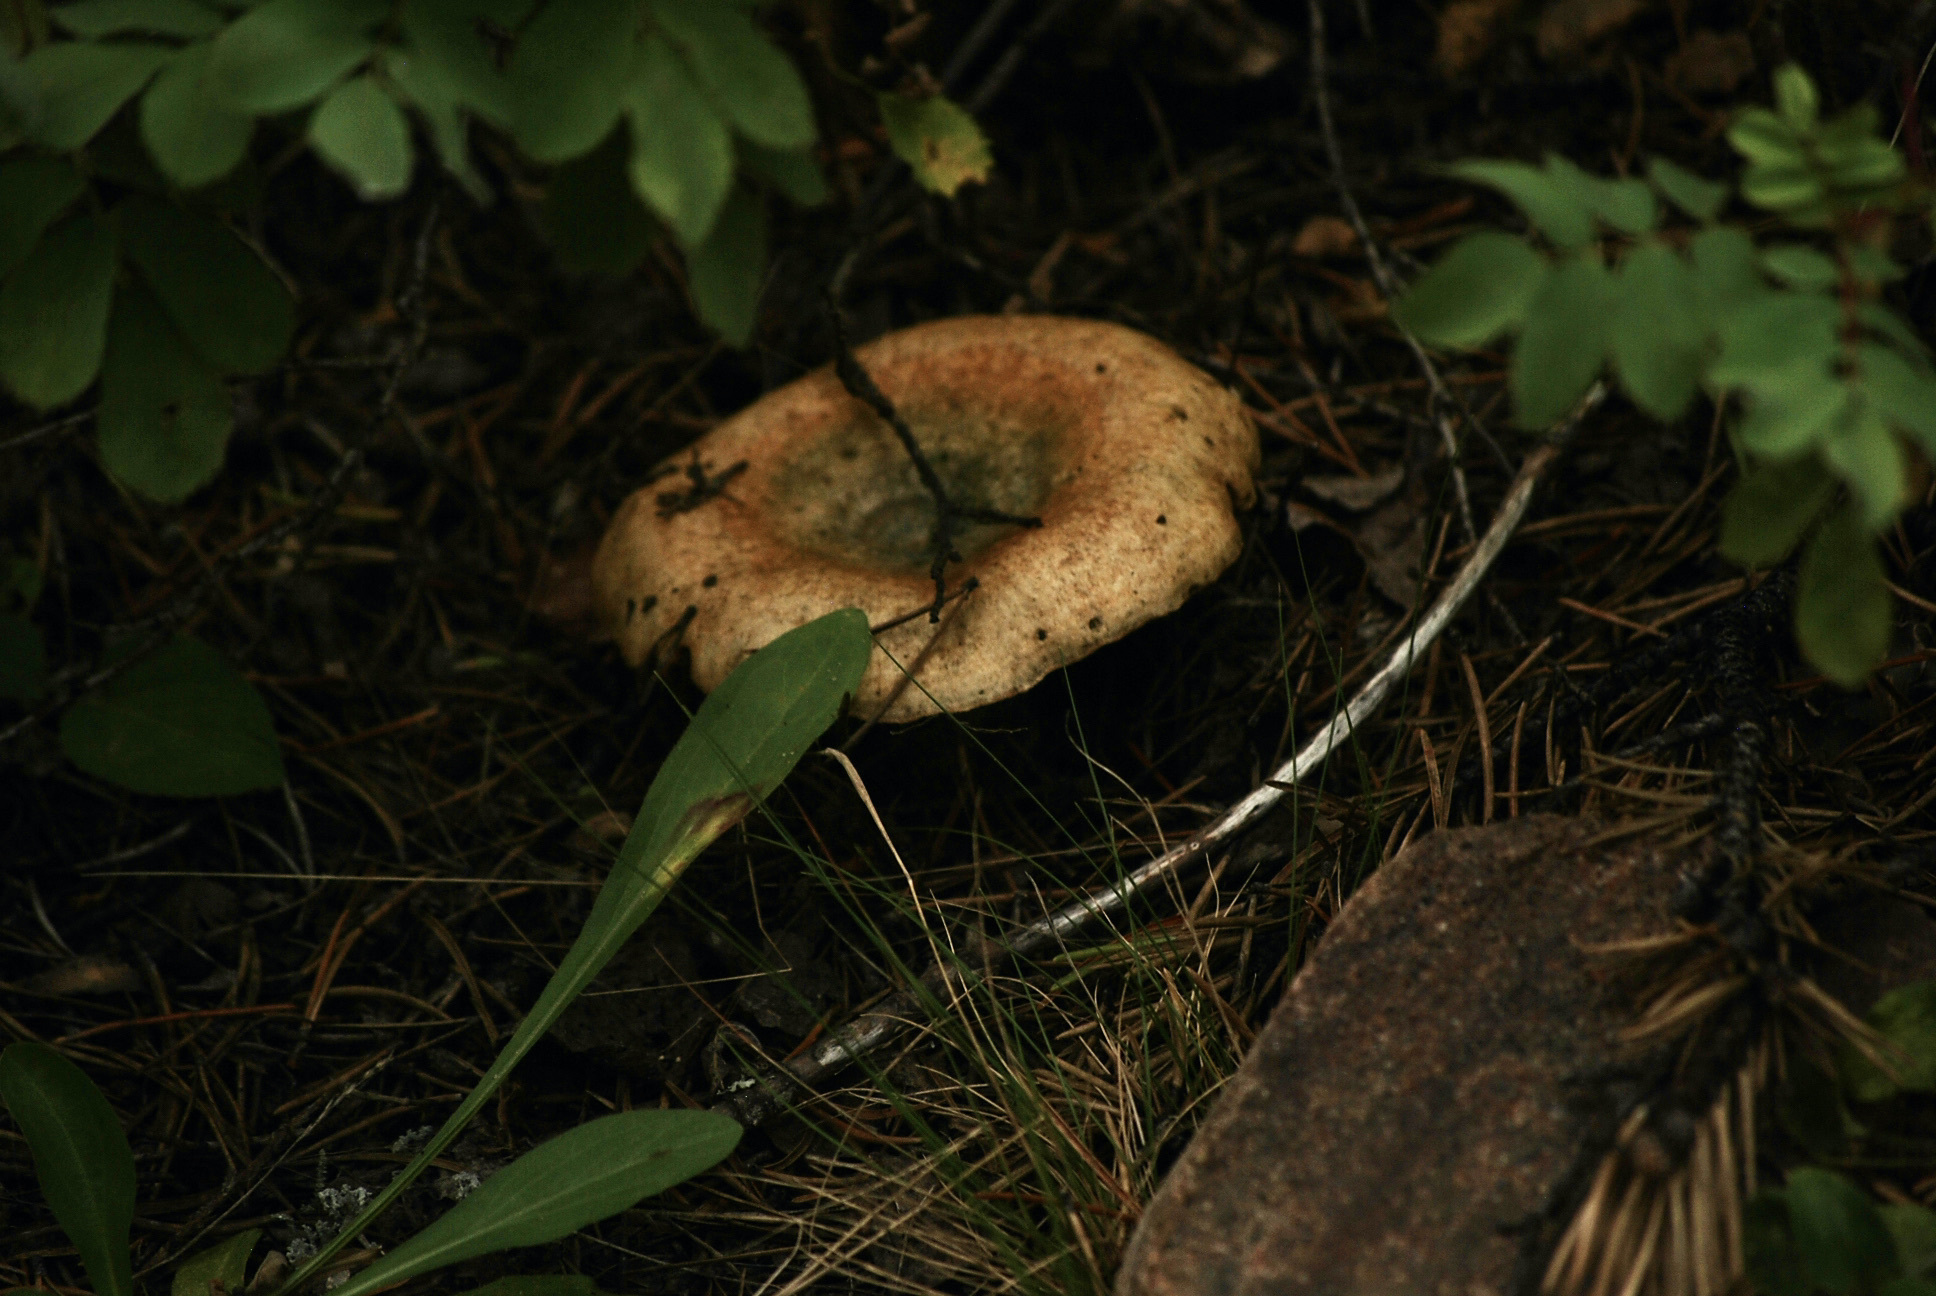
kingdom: Fungi
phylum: Basidiomycota
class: Agaricomycetes
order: Russulales
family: Russulaceae
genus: Lactarius
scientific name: Lactarius deterrimus
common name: False saffron milkcap
